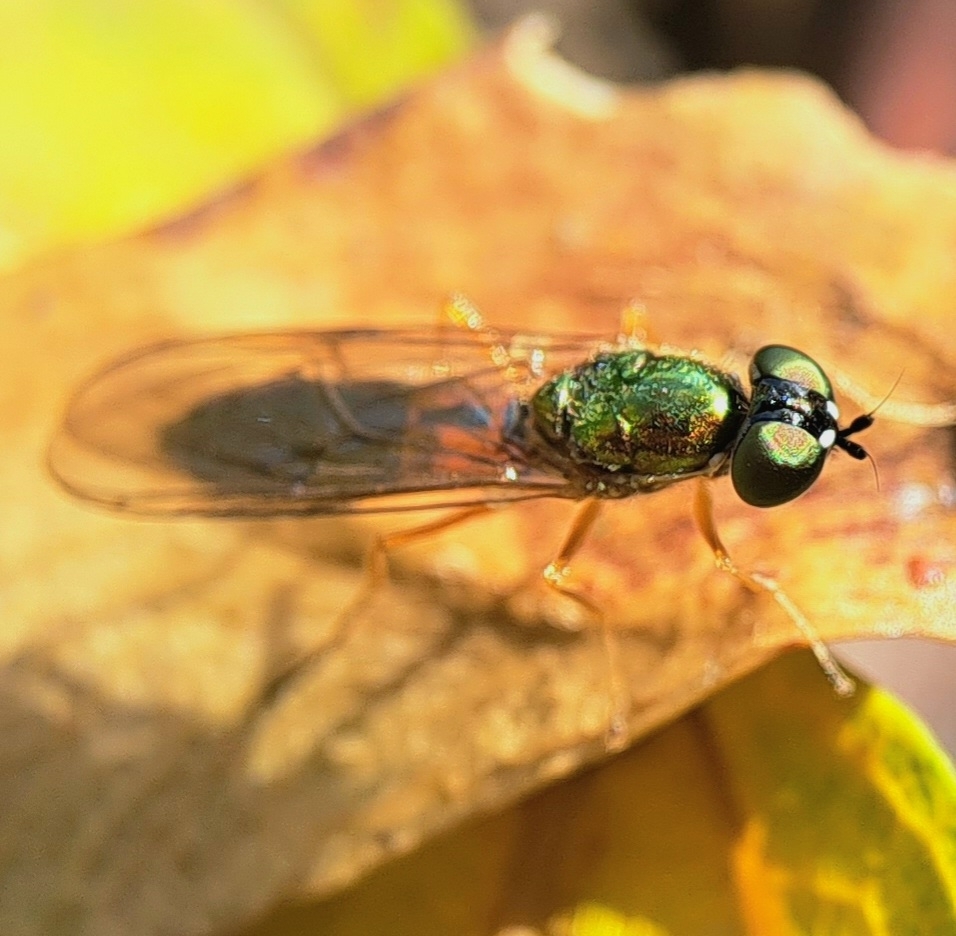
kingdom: Animalia
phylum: Arthropoda
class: Insecta
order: Diptera
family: Stratiomyidae
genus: Sargus
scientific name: Sargus bipunctatus
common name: Twin-spot centurion
